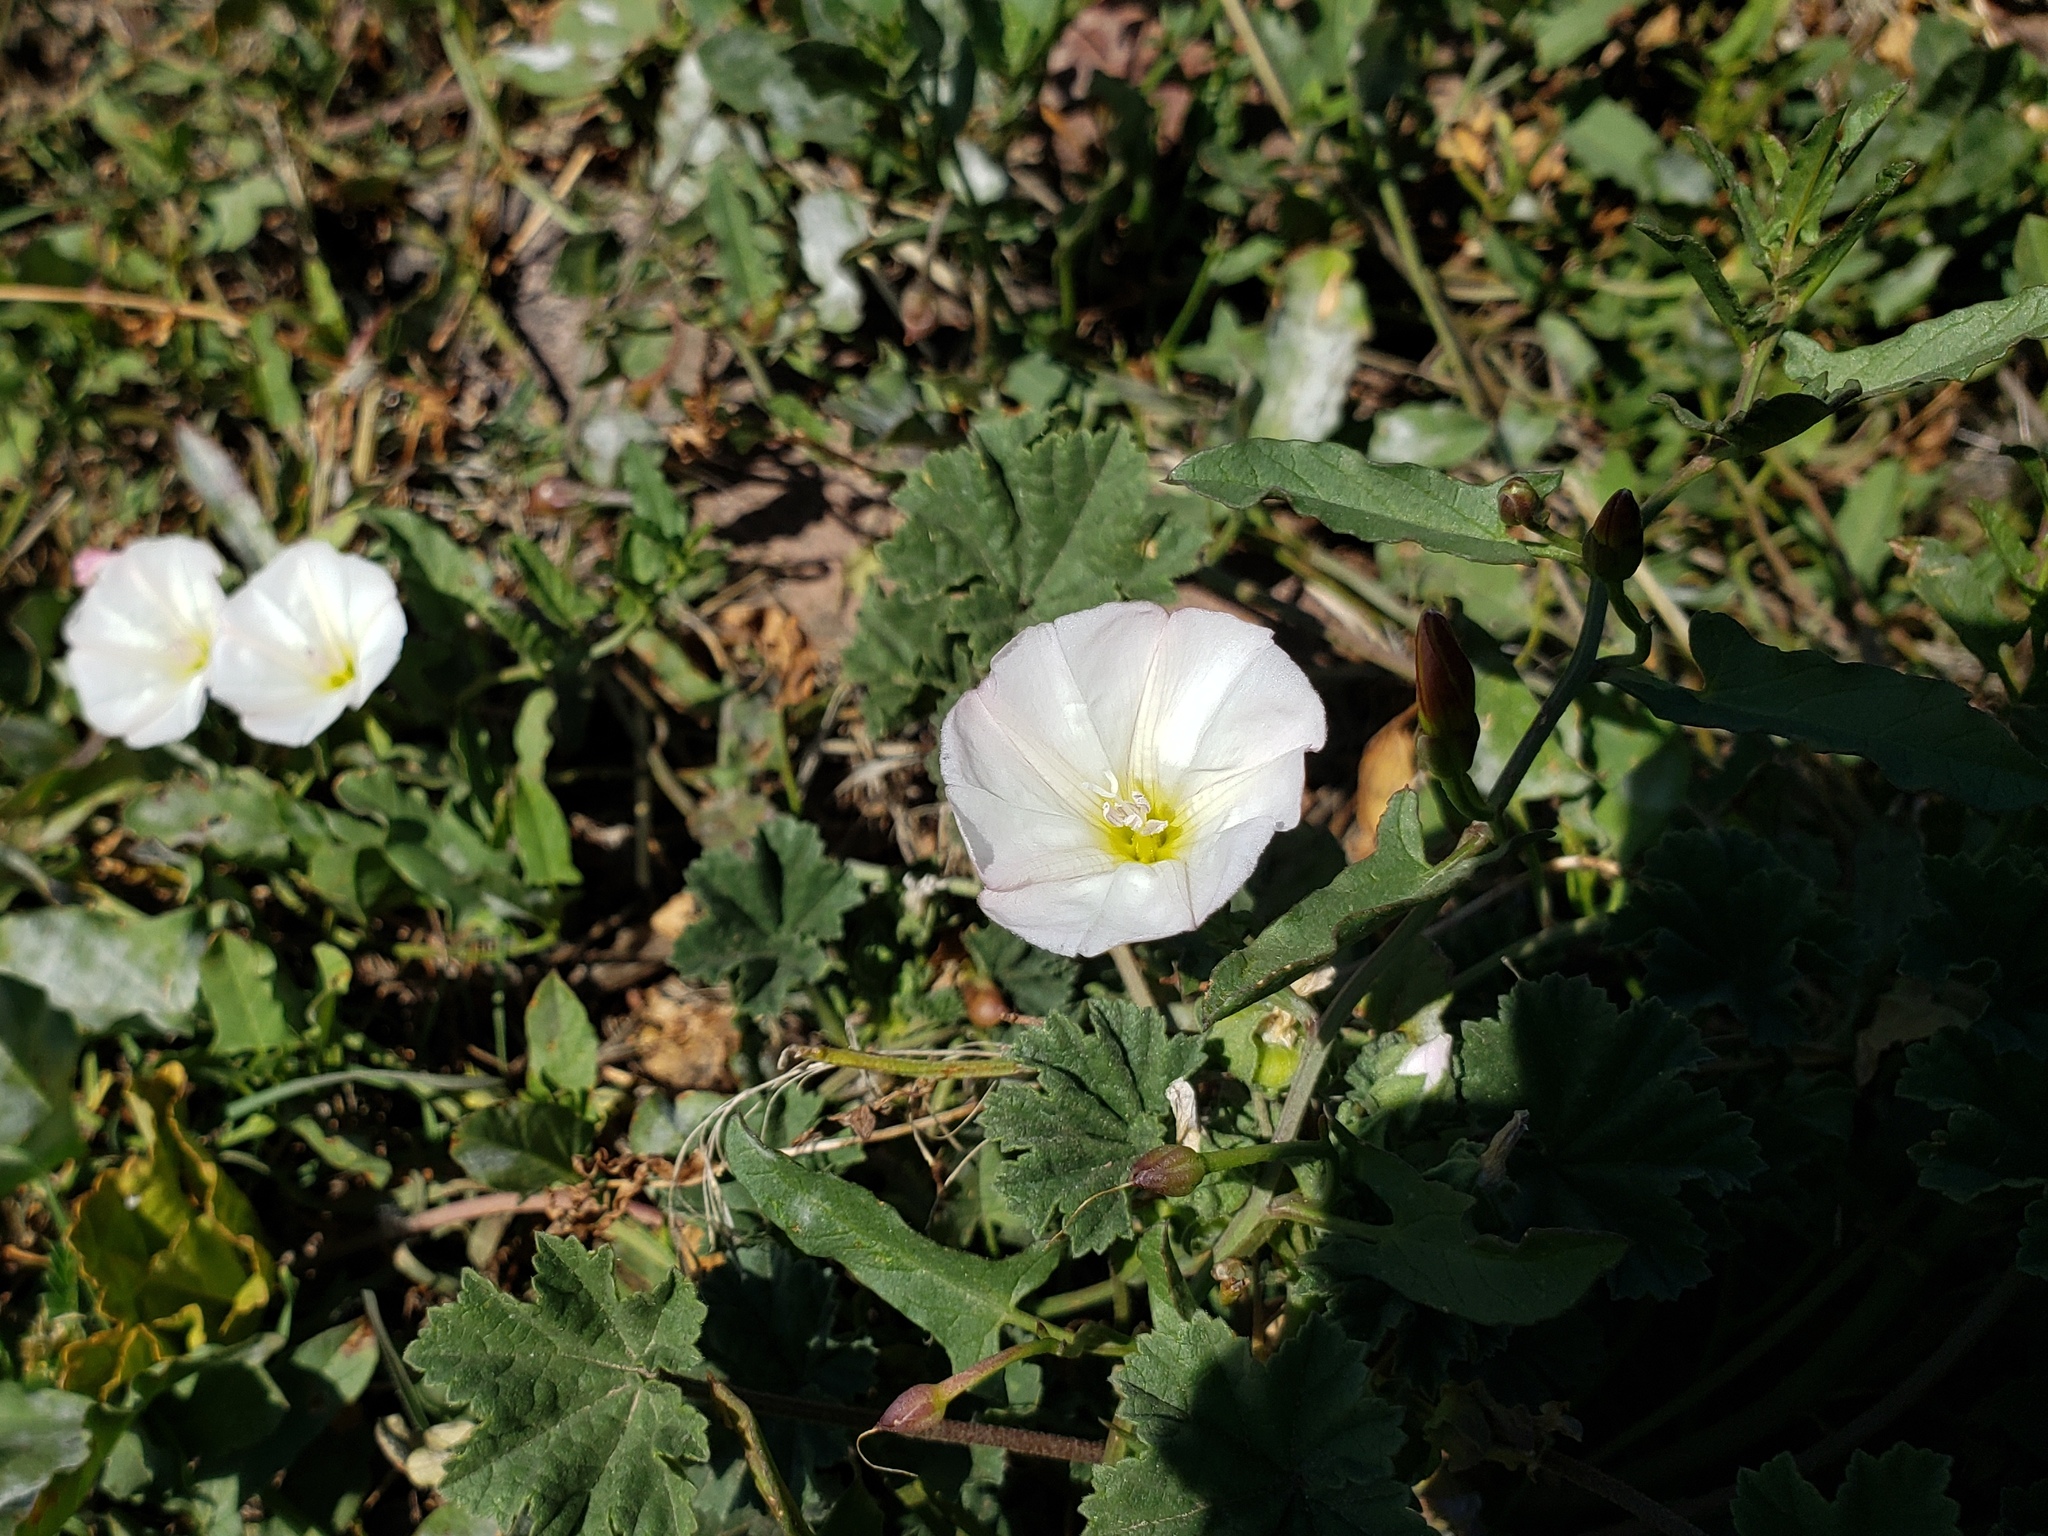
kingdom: Plantae
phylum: Tracheophyta
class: Magnoliopsida
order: Solanales
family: Convolvulaceae
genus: Convolvulus
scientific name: Convolvulus arvensis
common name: Field bindweed
